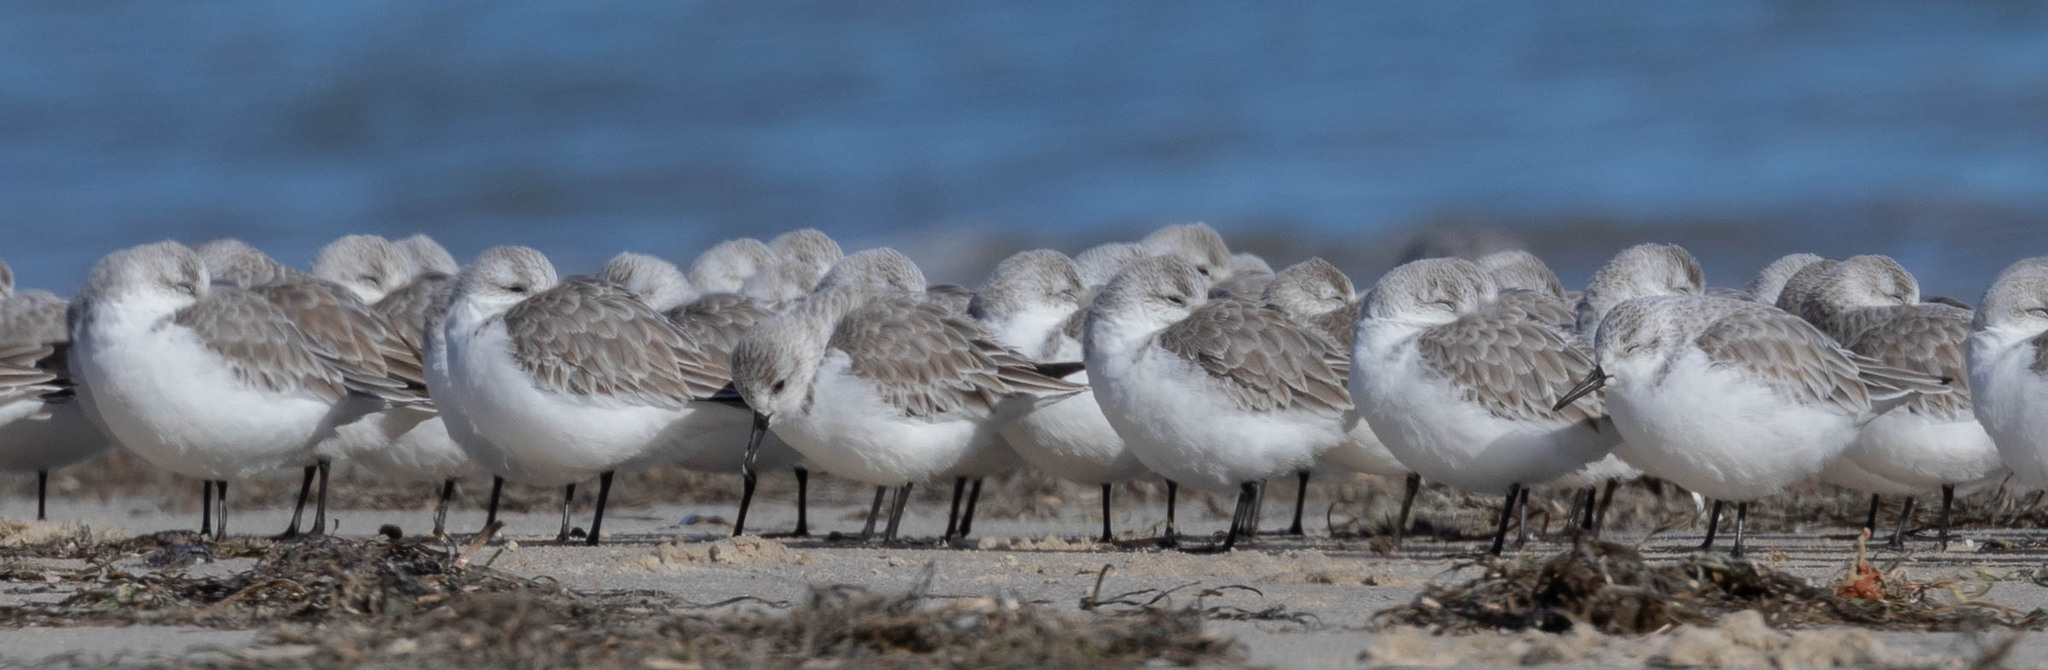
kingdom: Animalia
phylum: Chordata
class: Aves
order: Charadriiformes
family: Scolopacidae
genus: Calidris
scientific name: Calidris alba
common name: Sanderling
